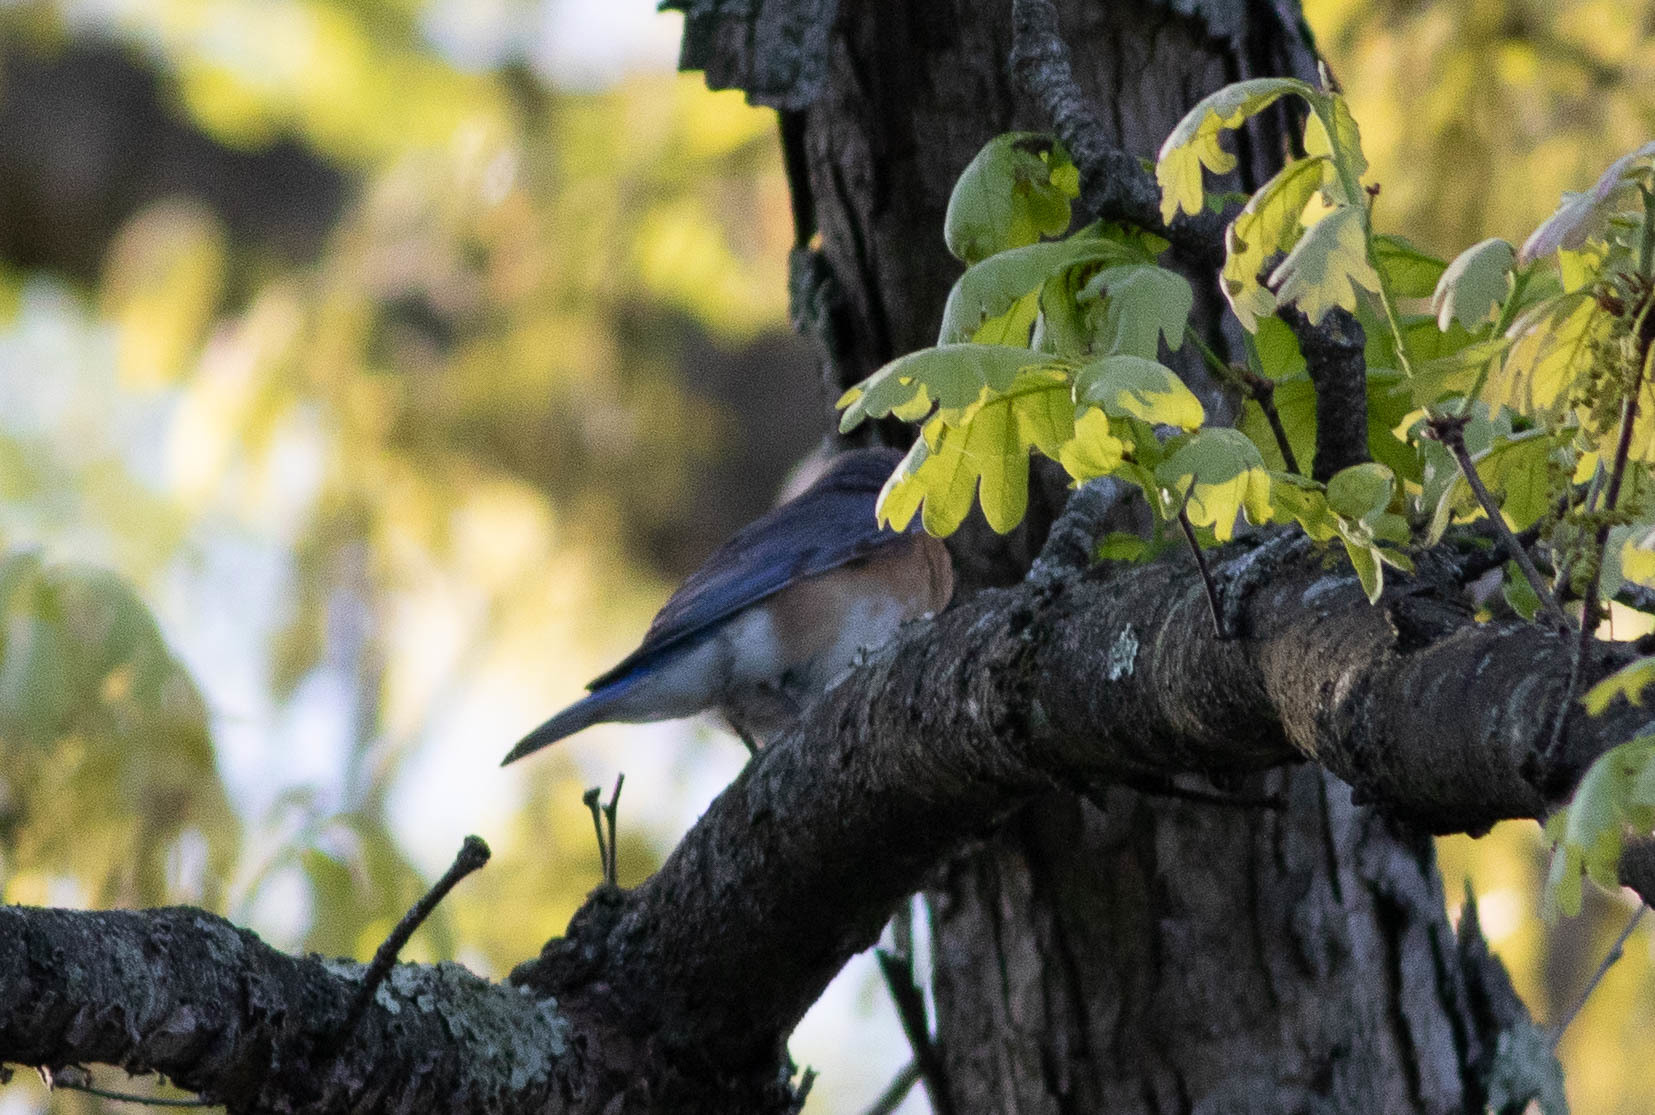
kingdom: Animalia
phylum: Chordata
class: Aves
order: Passeriformes
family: Turdidae
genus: Sialia
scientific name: Sialia sialis
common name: Eastern bluebird
